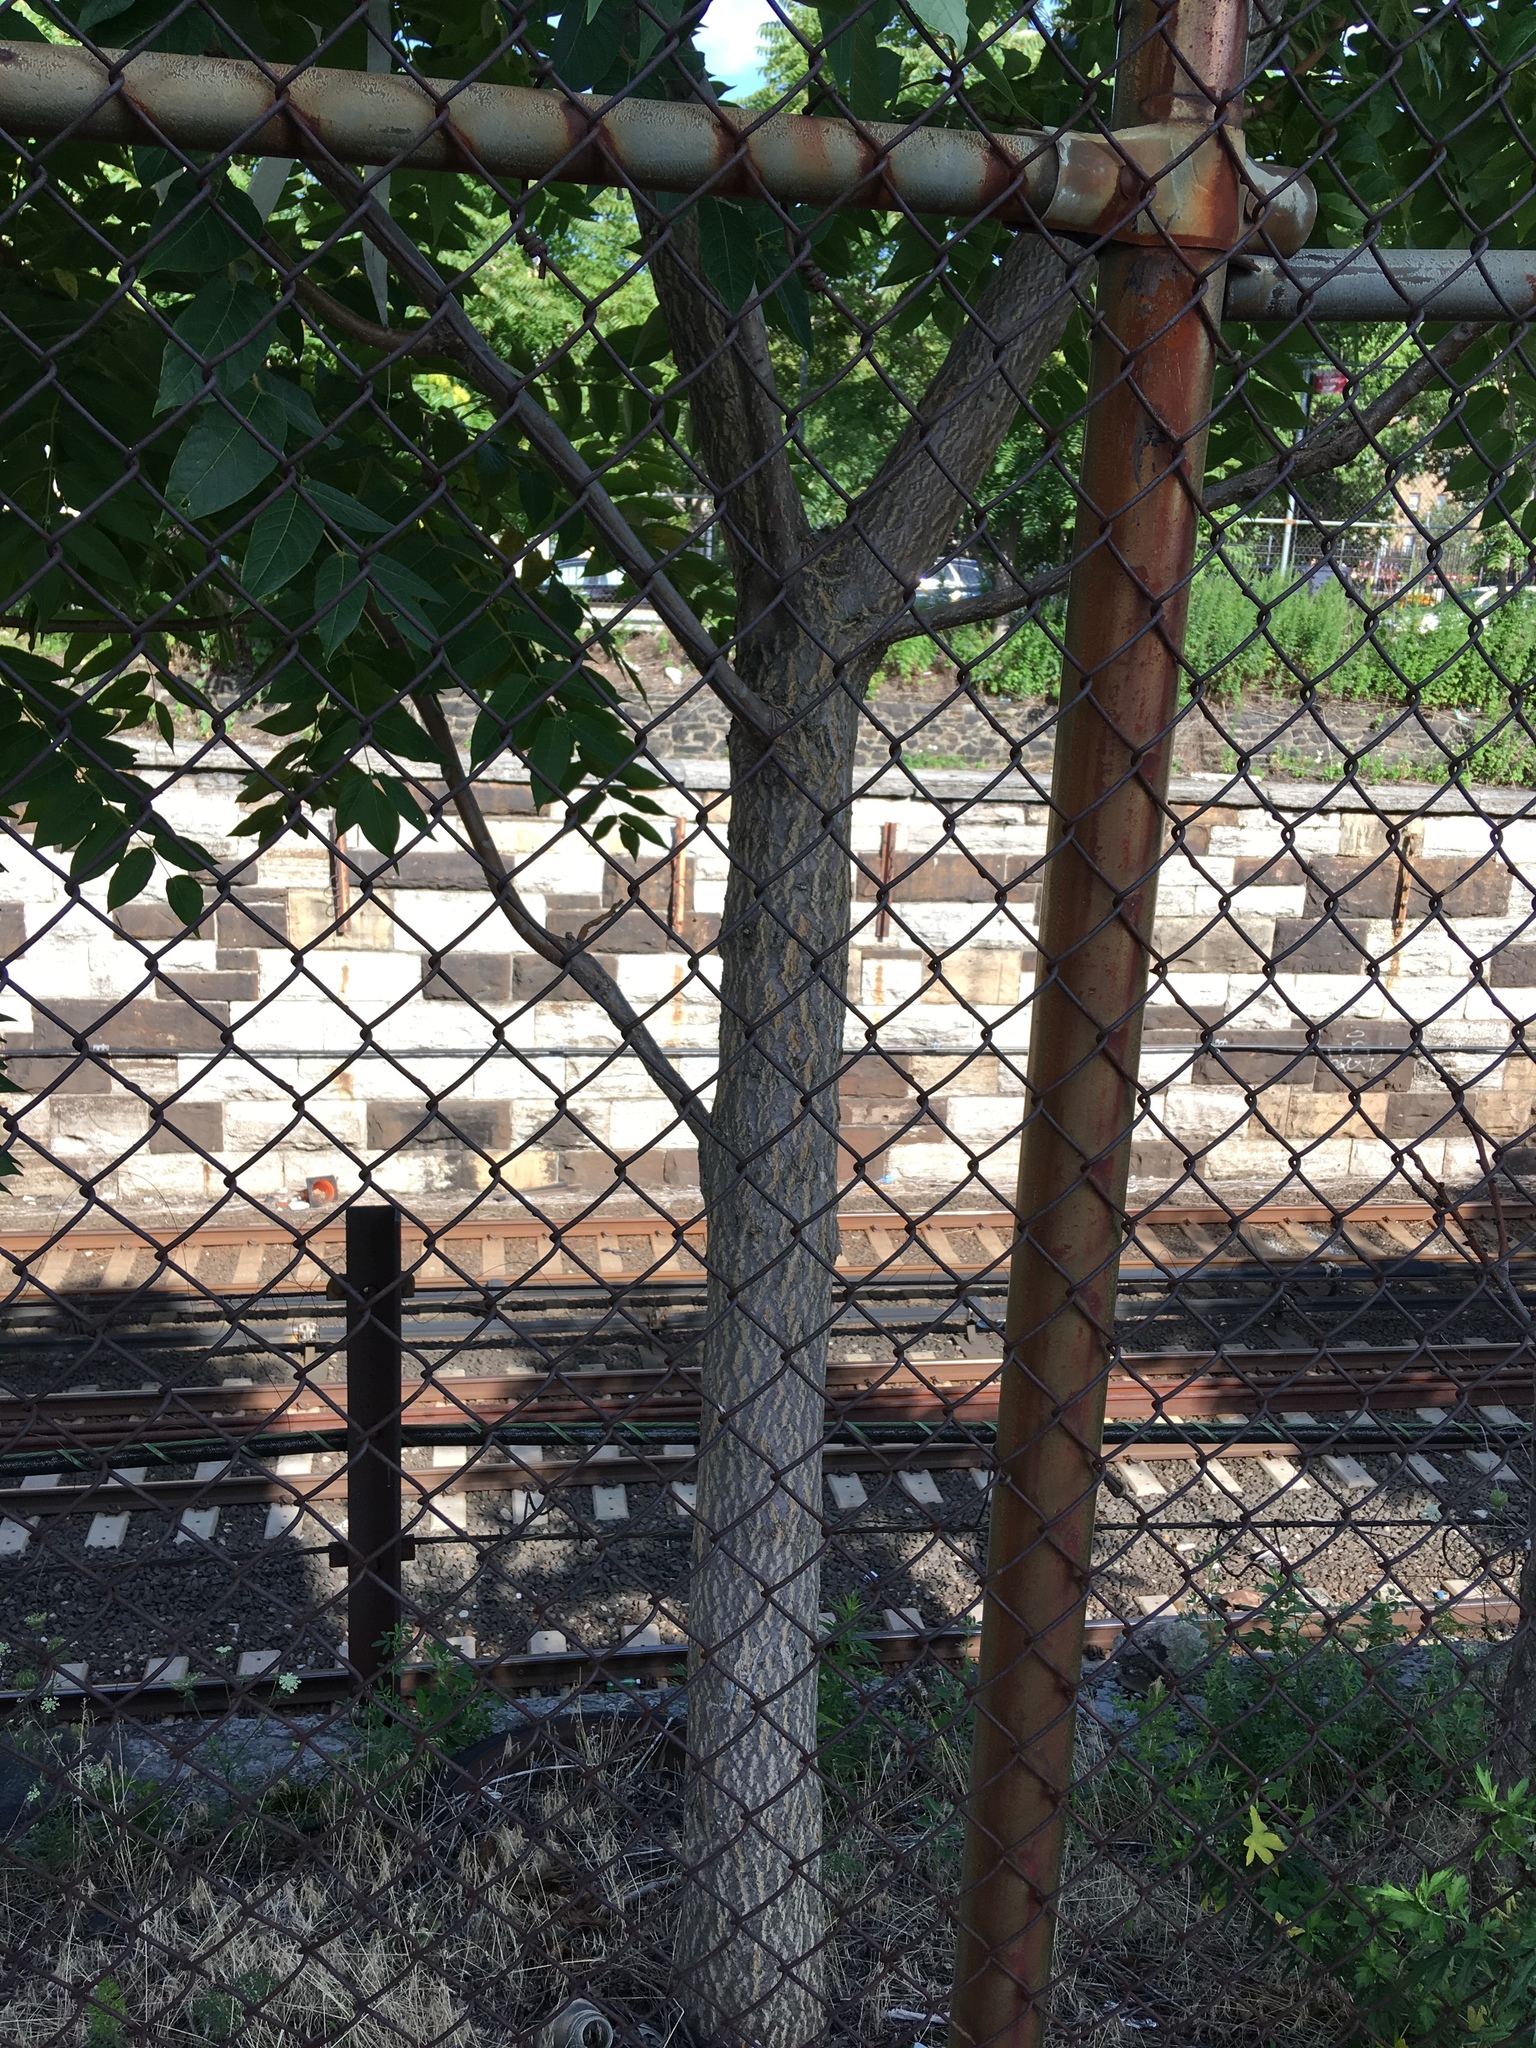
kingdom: Plantae
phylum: Tracheophyta
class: Magnoliopsida
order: Sapindales
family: Simaroubaceae
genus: Ailanthus
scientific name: Ailanthus altissima
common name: Tree-of-heaven
